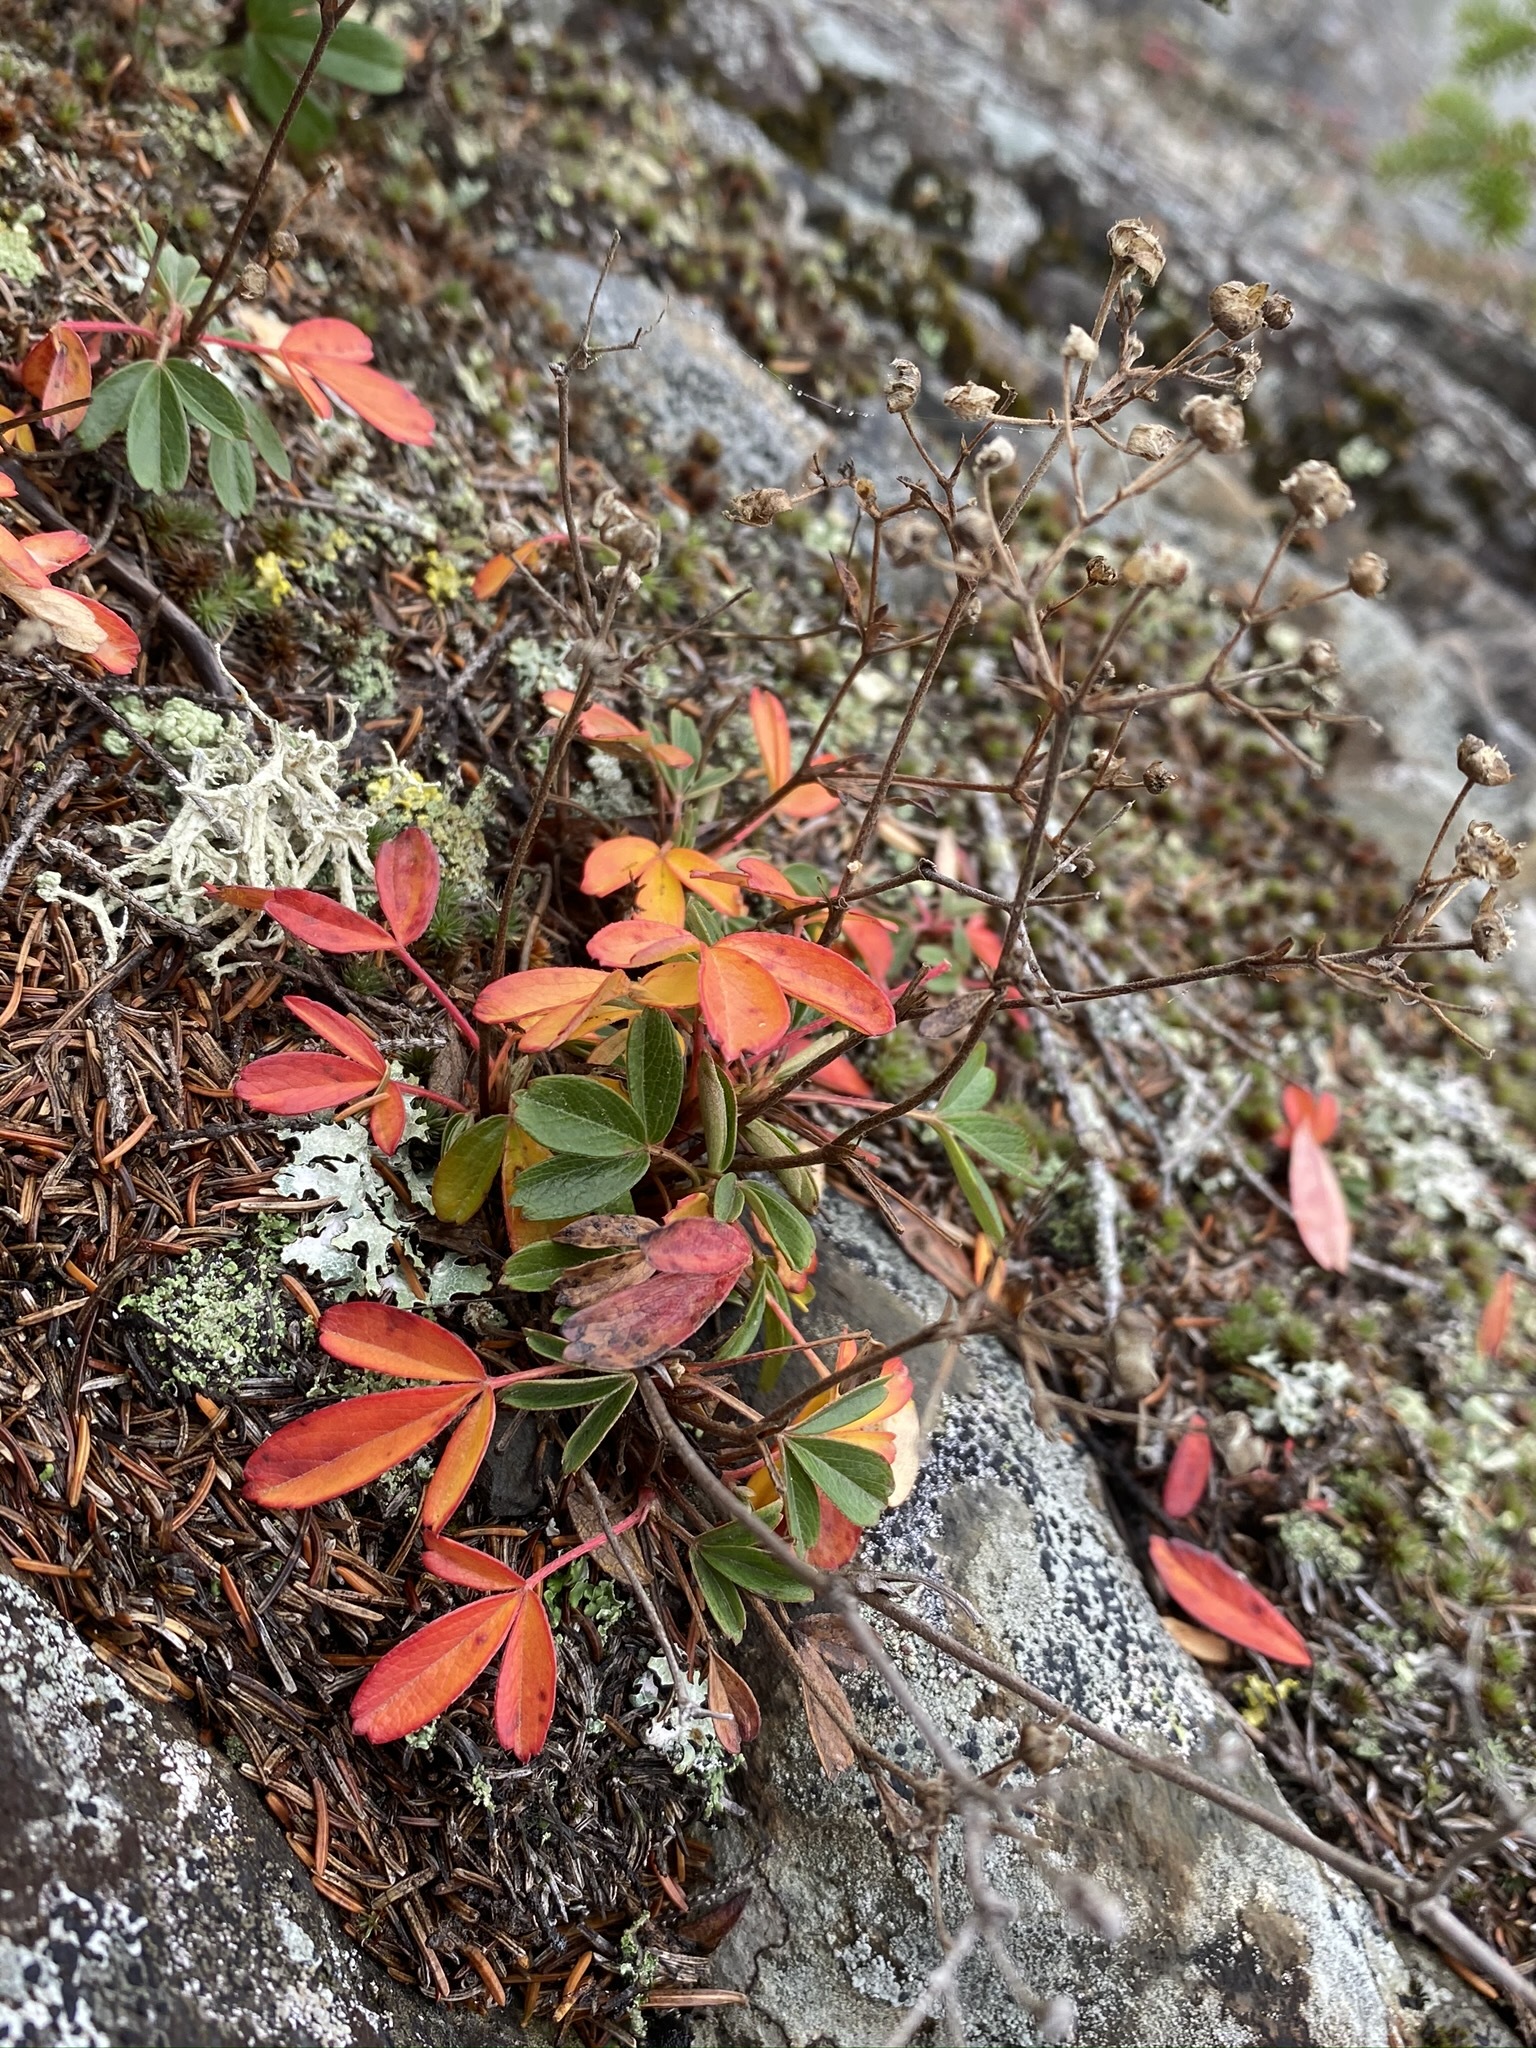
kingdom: Plantae
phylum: Tracheophyta
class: Magnoliopsida
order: Rosales
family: Rosaceae
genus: Sibbaldia
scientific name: Sibbaldia tridentata
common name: Three-toothed cinquefoil
